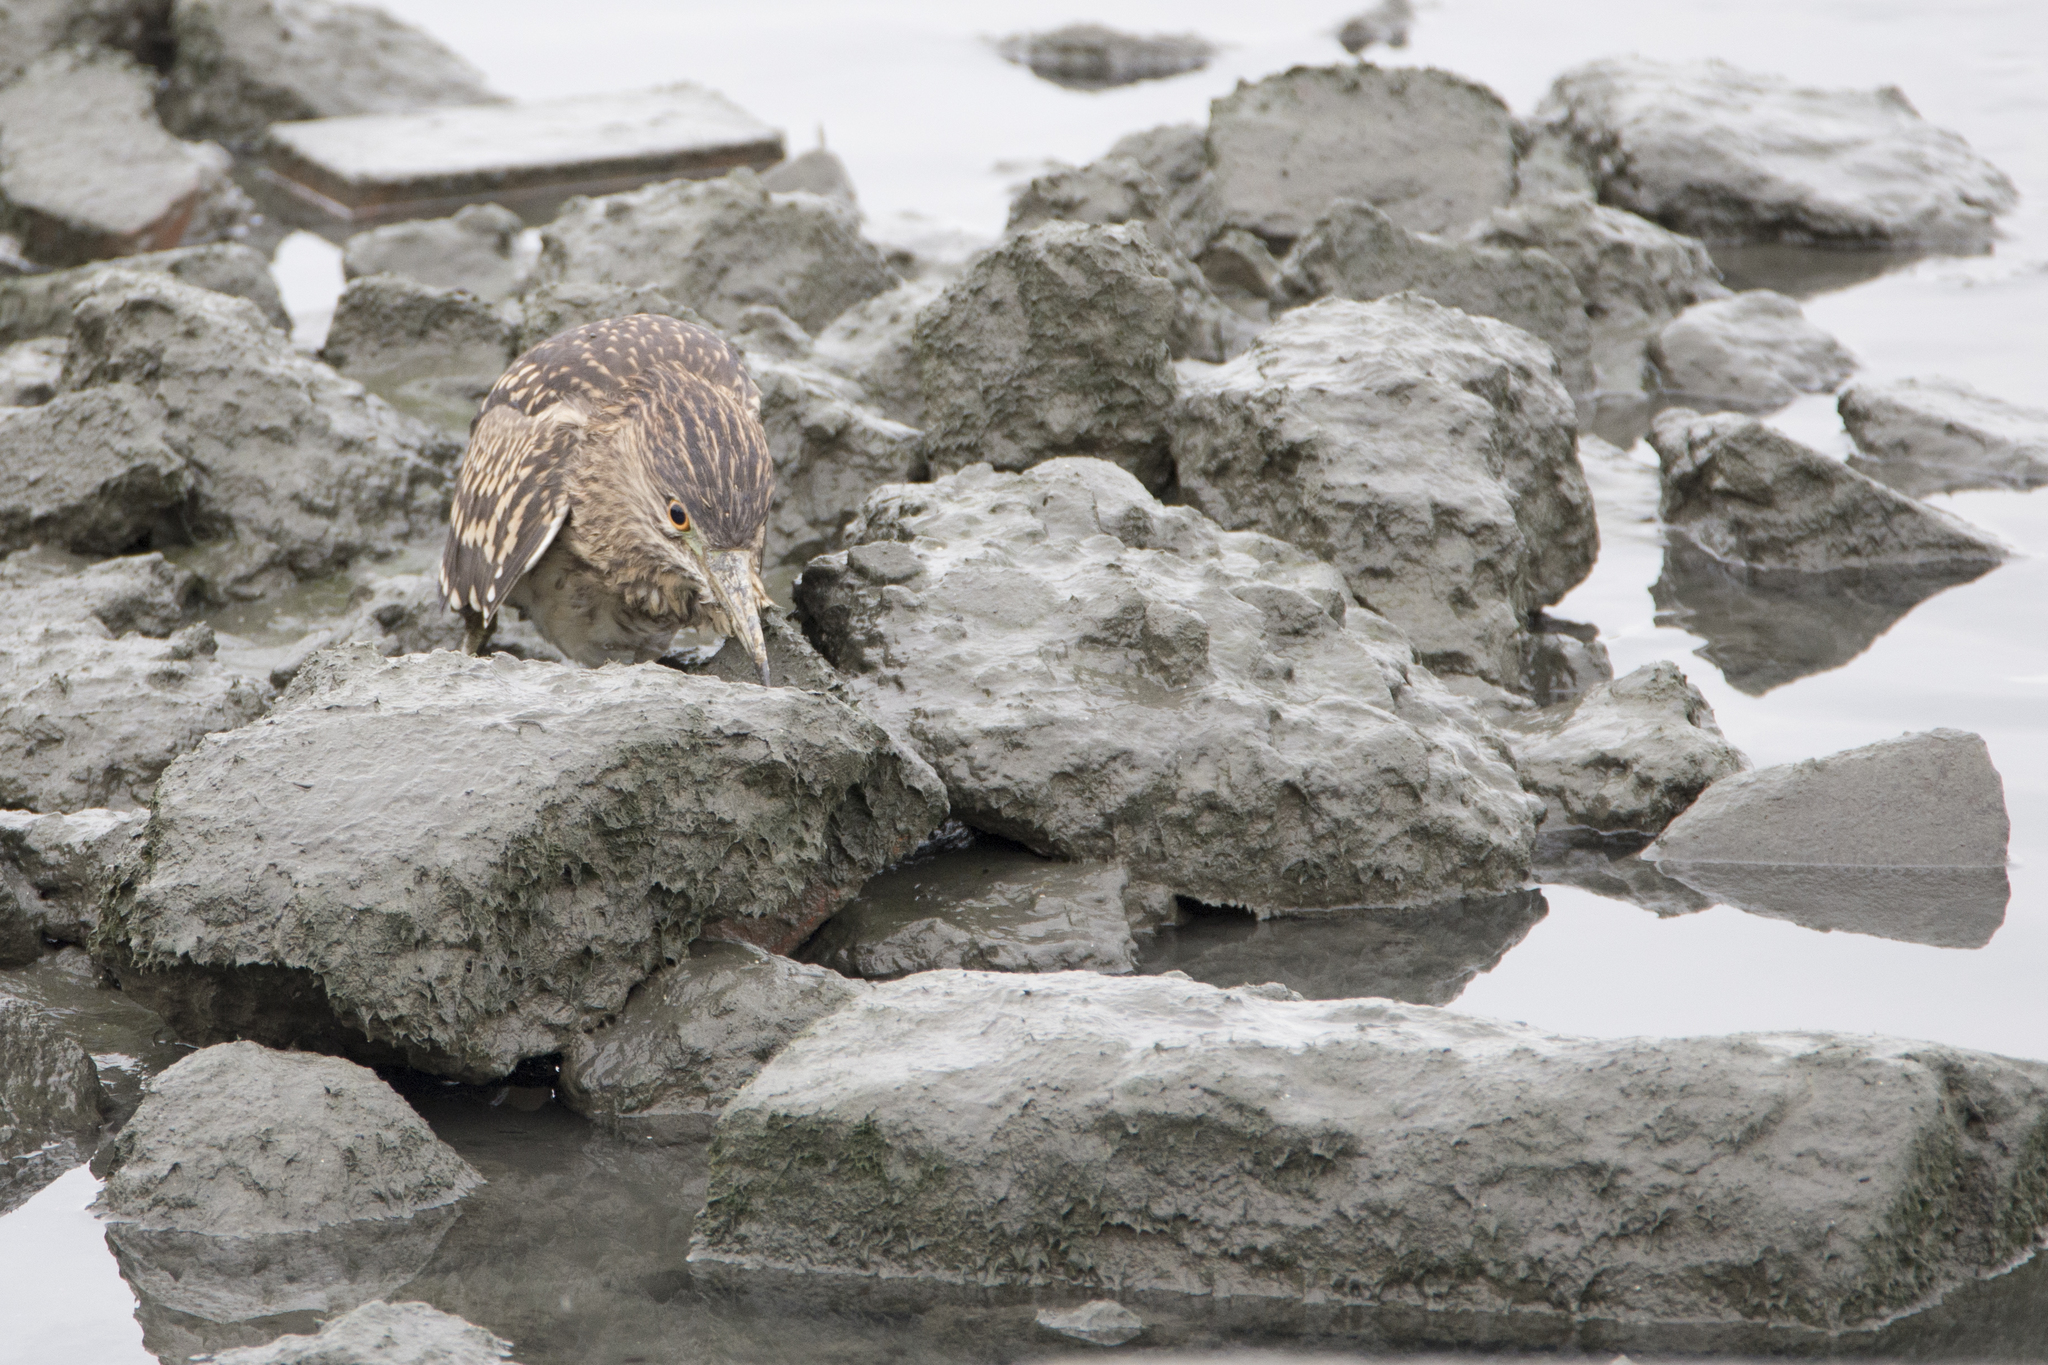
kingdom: Animalia
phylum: Chordata
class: Aves
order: Pelecaniformes
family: Ardeidae
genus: Nycticorax
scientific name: Nycticorax nycticorax
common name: Black-crowned night heron
